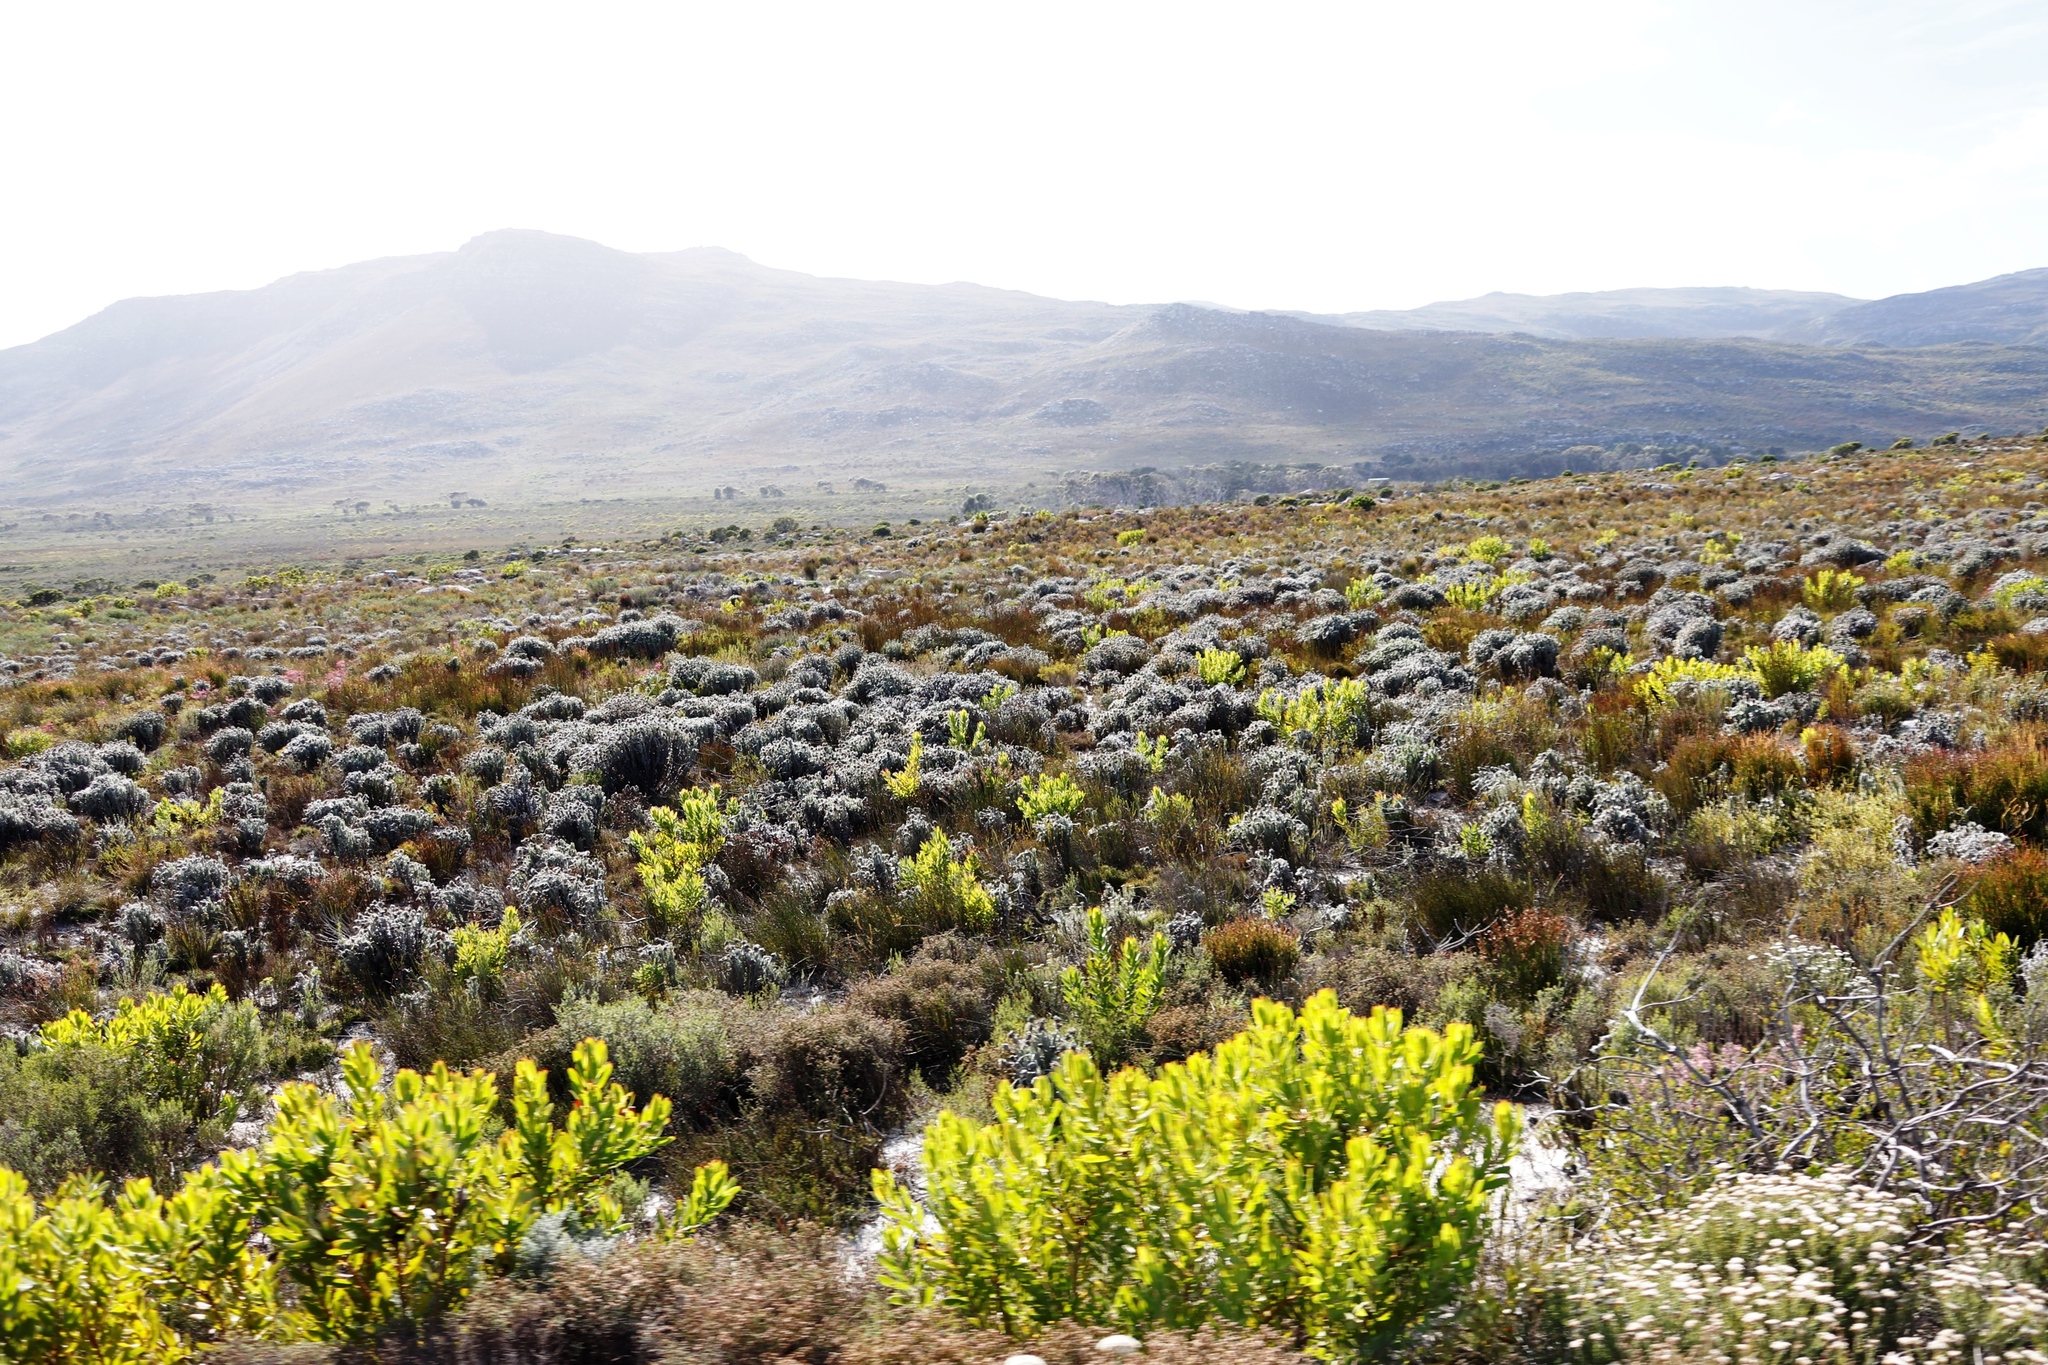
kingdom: Plantae
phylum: Tracheophyta
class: Magnoliopsida
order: Asterales
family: Asteraceae
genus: Syncarpha
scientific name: Syncarpha vestita
